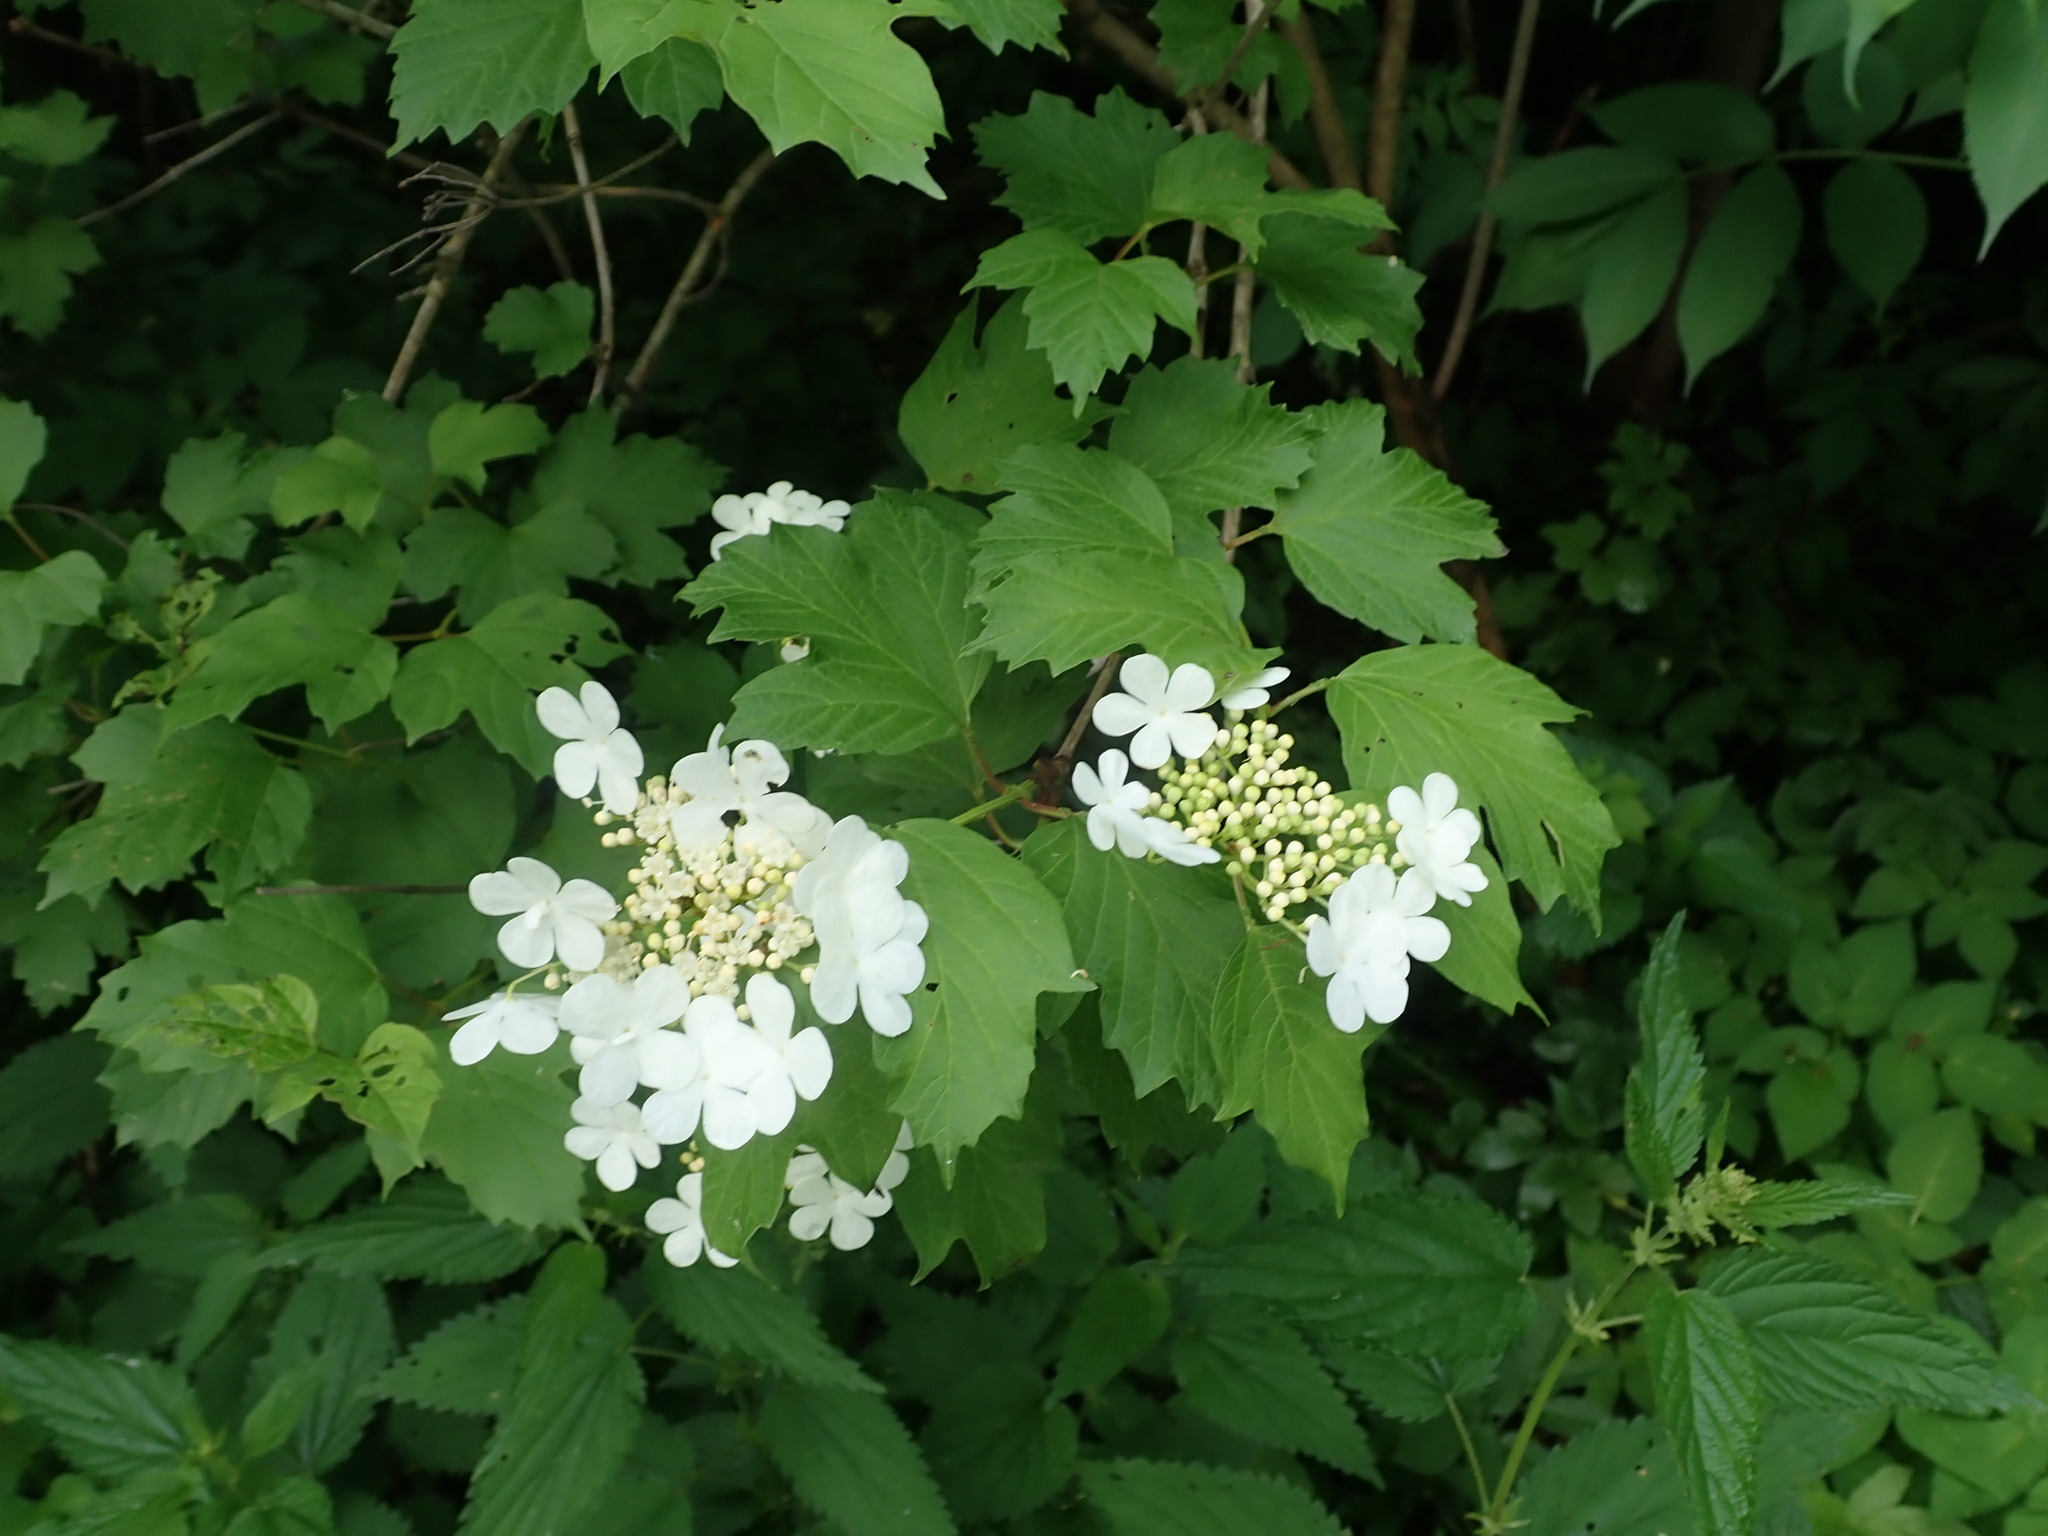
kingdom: Plantae
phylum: Tracheophyta
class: Magnoliopsida
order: Dipsacales
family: Viburnaceae
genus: Viburnum
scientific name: Viburnum opulus
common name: Guelder-rose
